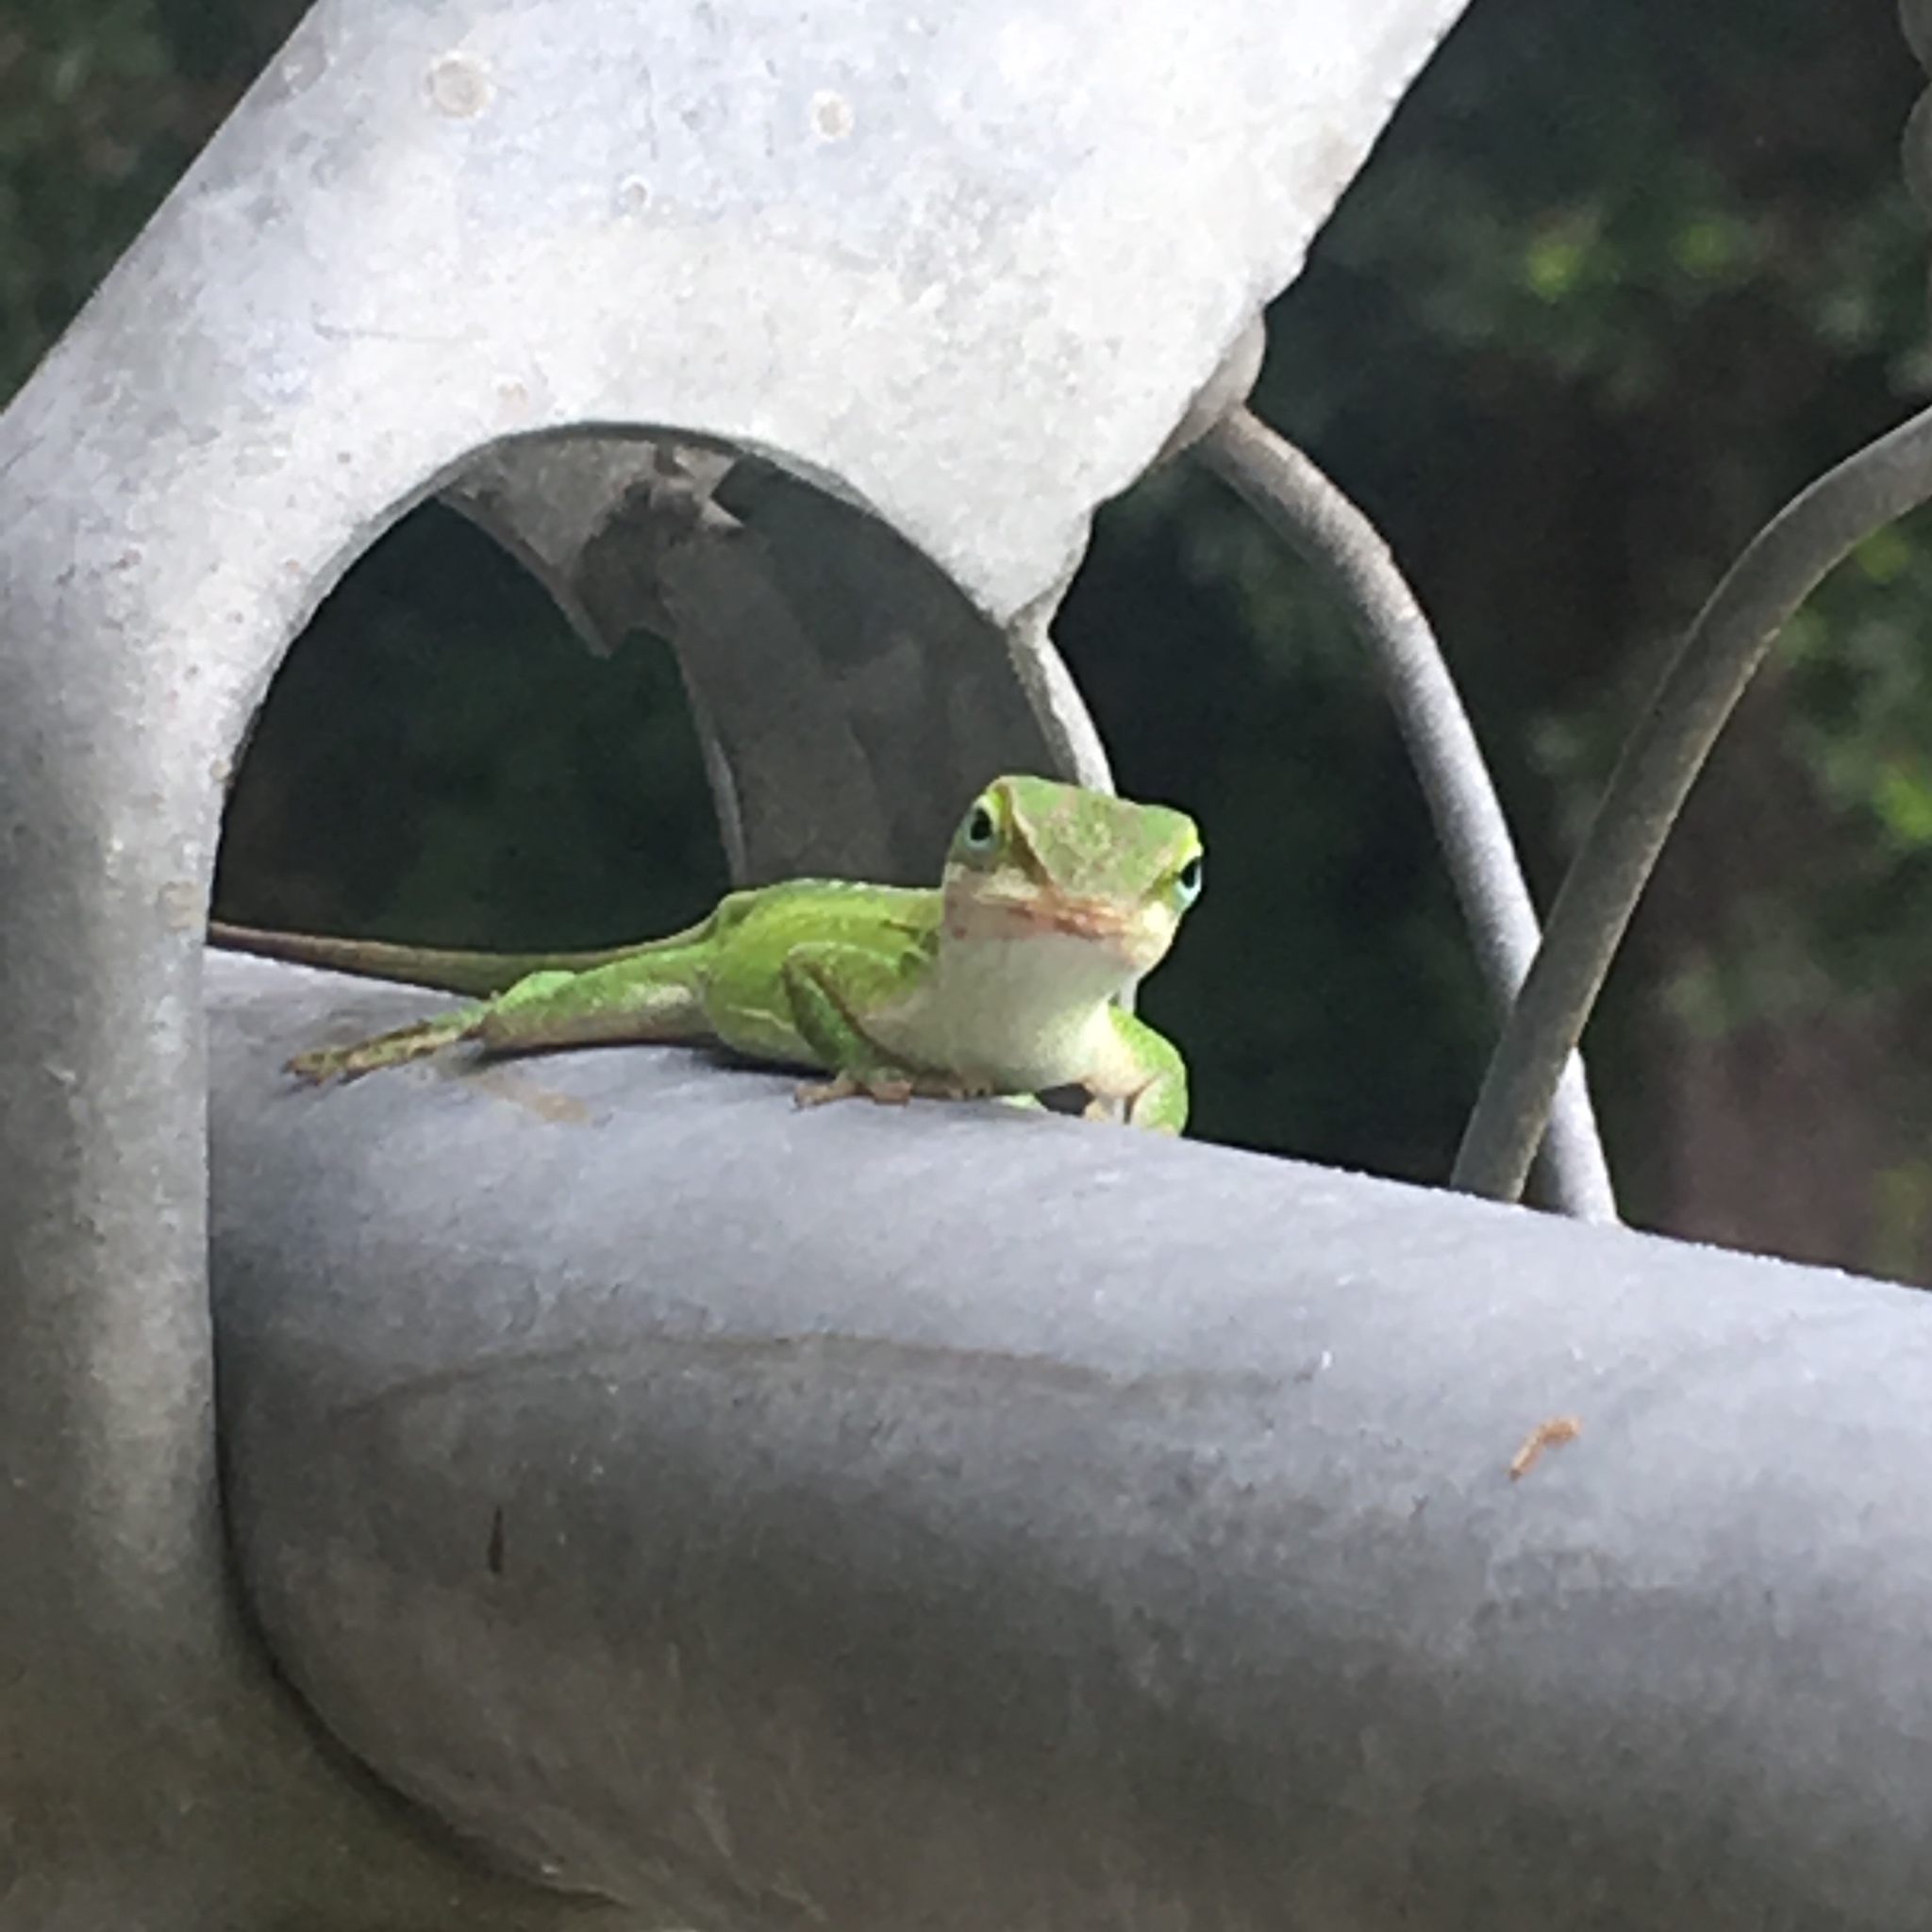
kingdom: Animalia
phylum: Chordata
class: Squamata
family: Dactyloidae
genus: Anolis
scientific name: Anolis carolinensis
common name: Green anole
